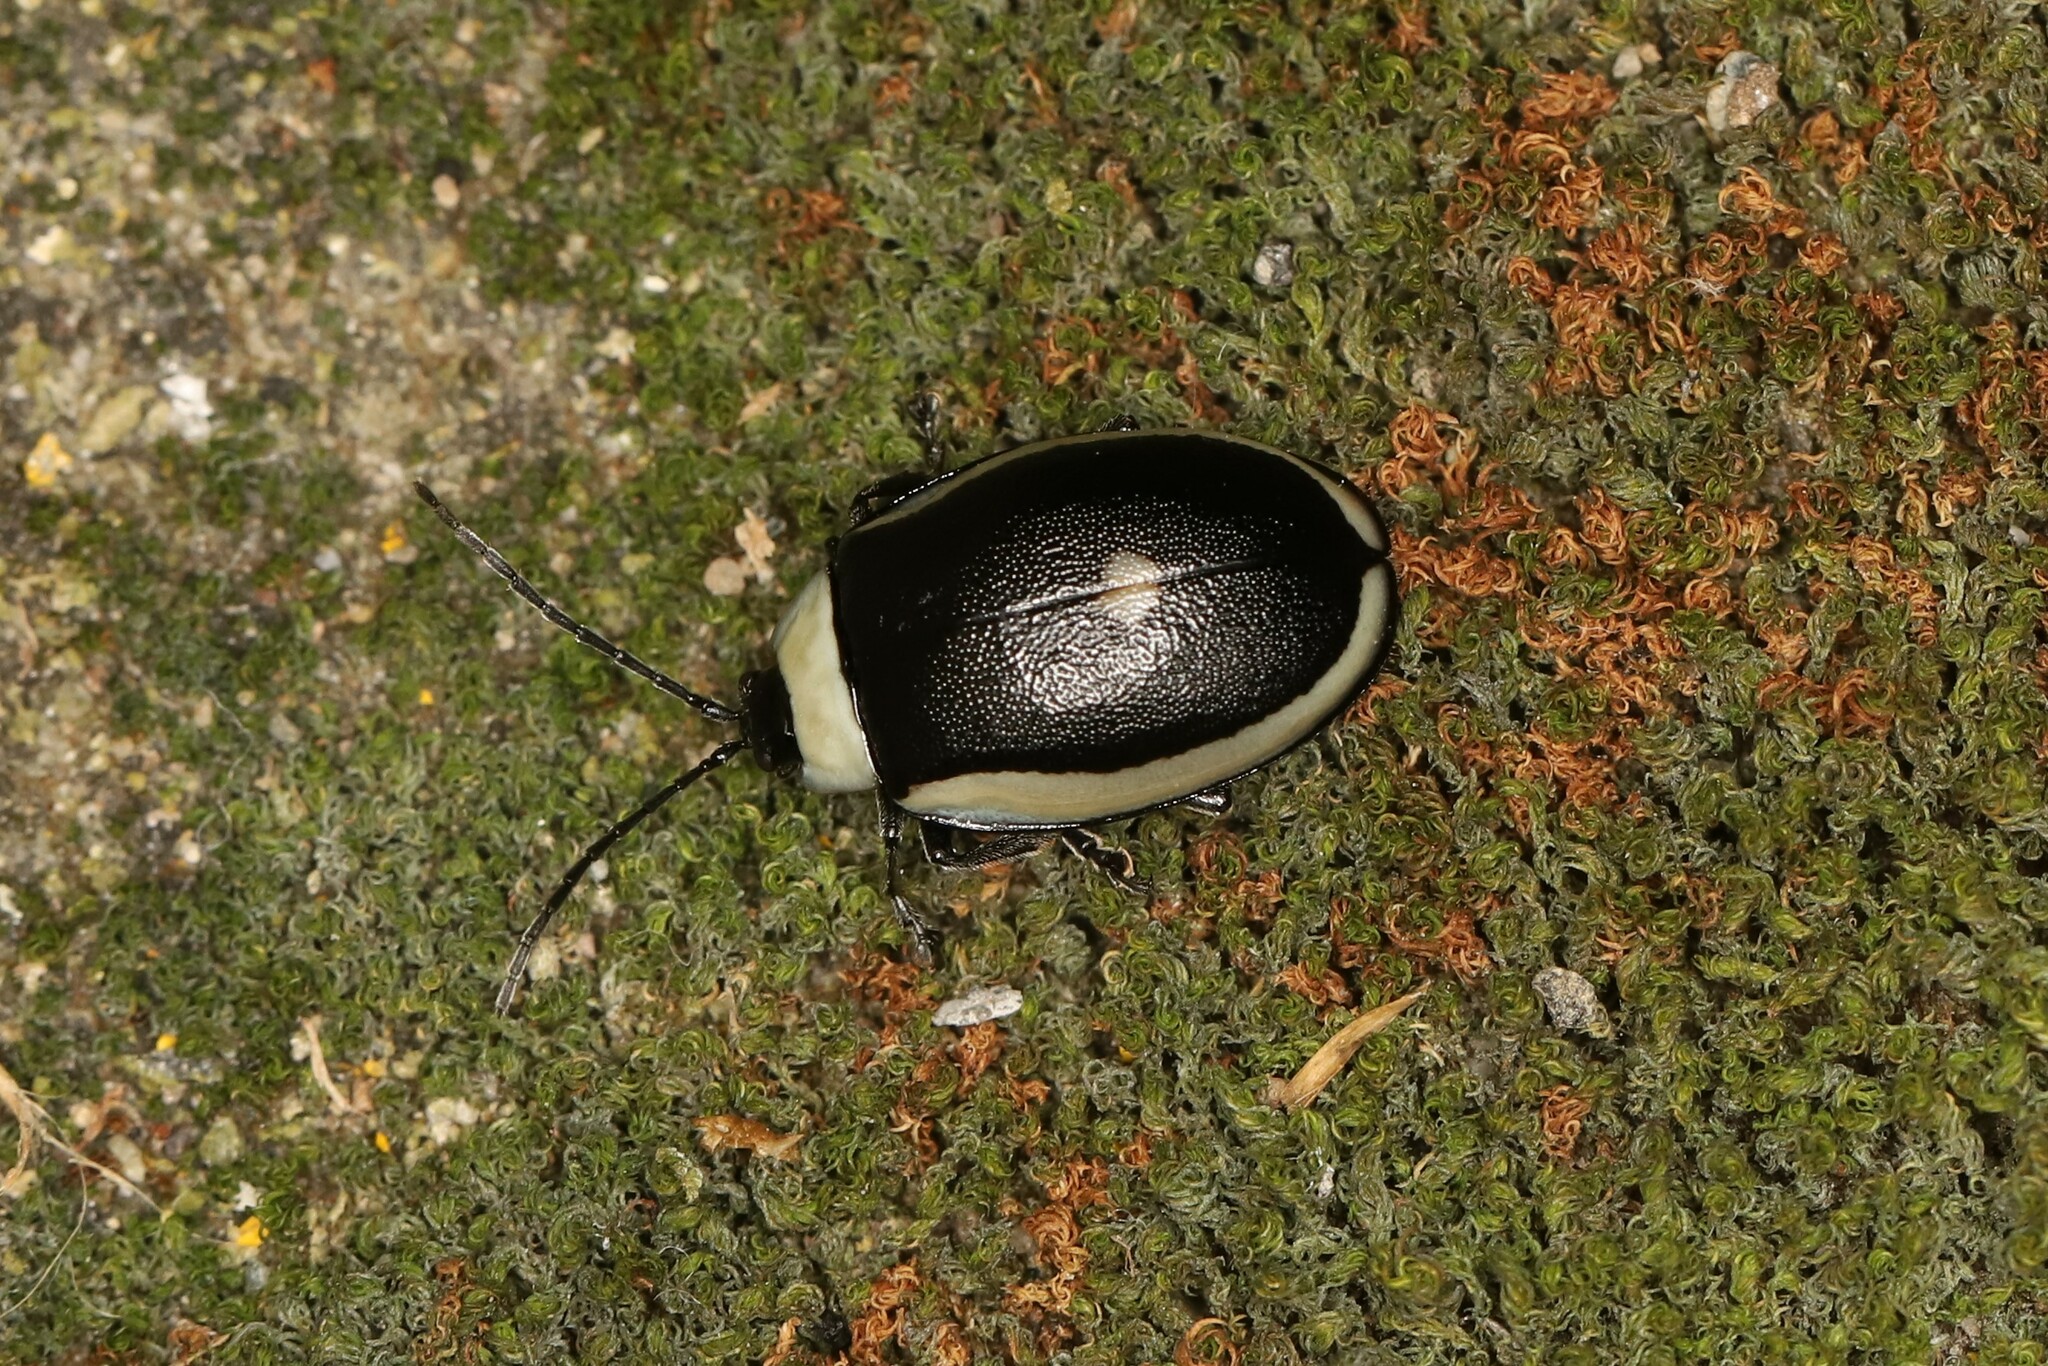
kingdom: Animalia
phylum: Arthropoda
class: Insecta
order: Coleoptera
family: Chrysomelidae
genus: Aspicela
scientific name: Aspicela
